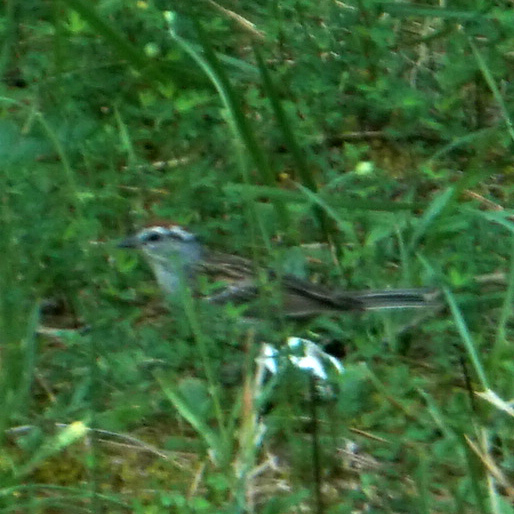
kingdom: Animalia
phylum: Chordata
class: Aves
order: Passeriformes
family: Passerellidae
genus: Spizella
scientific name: Spizella passerina
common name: Chipping sparrow
